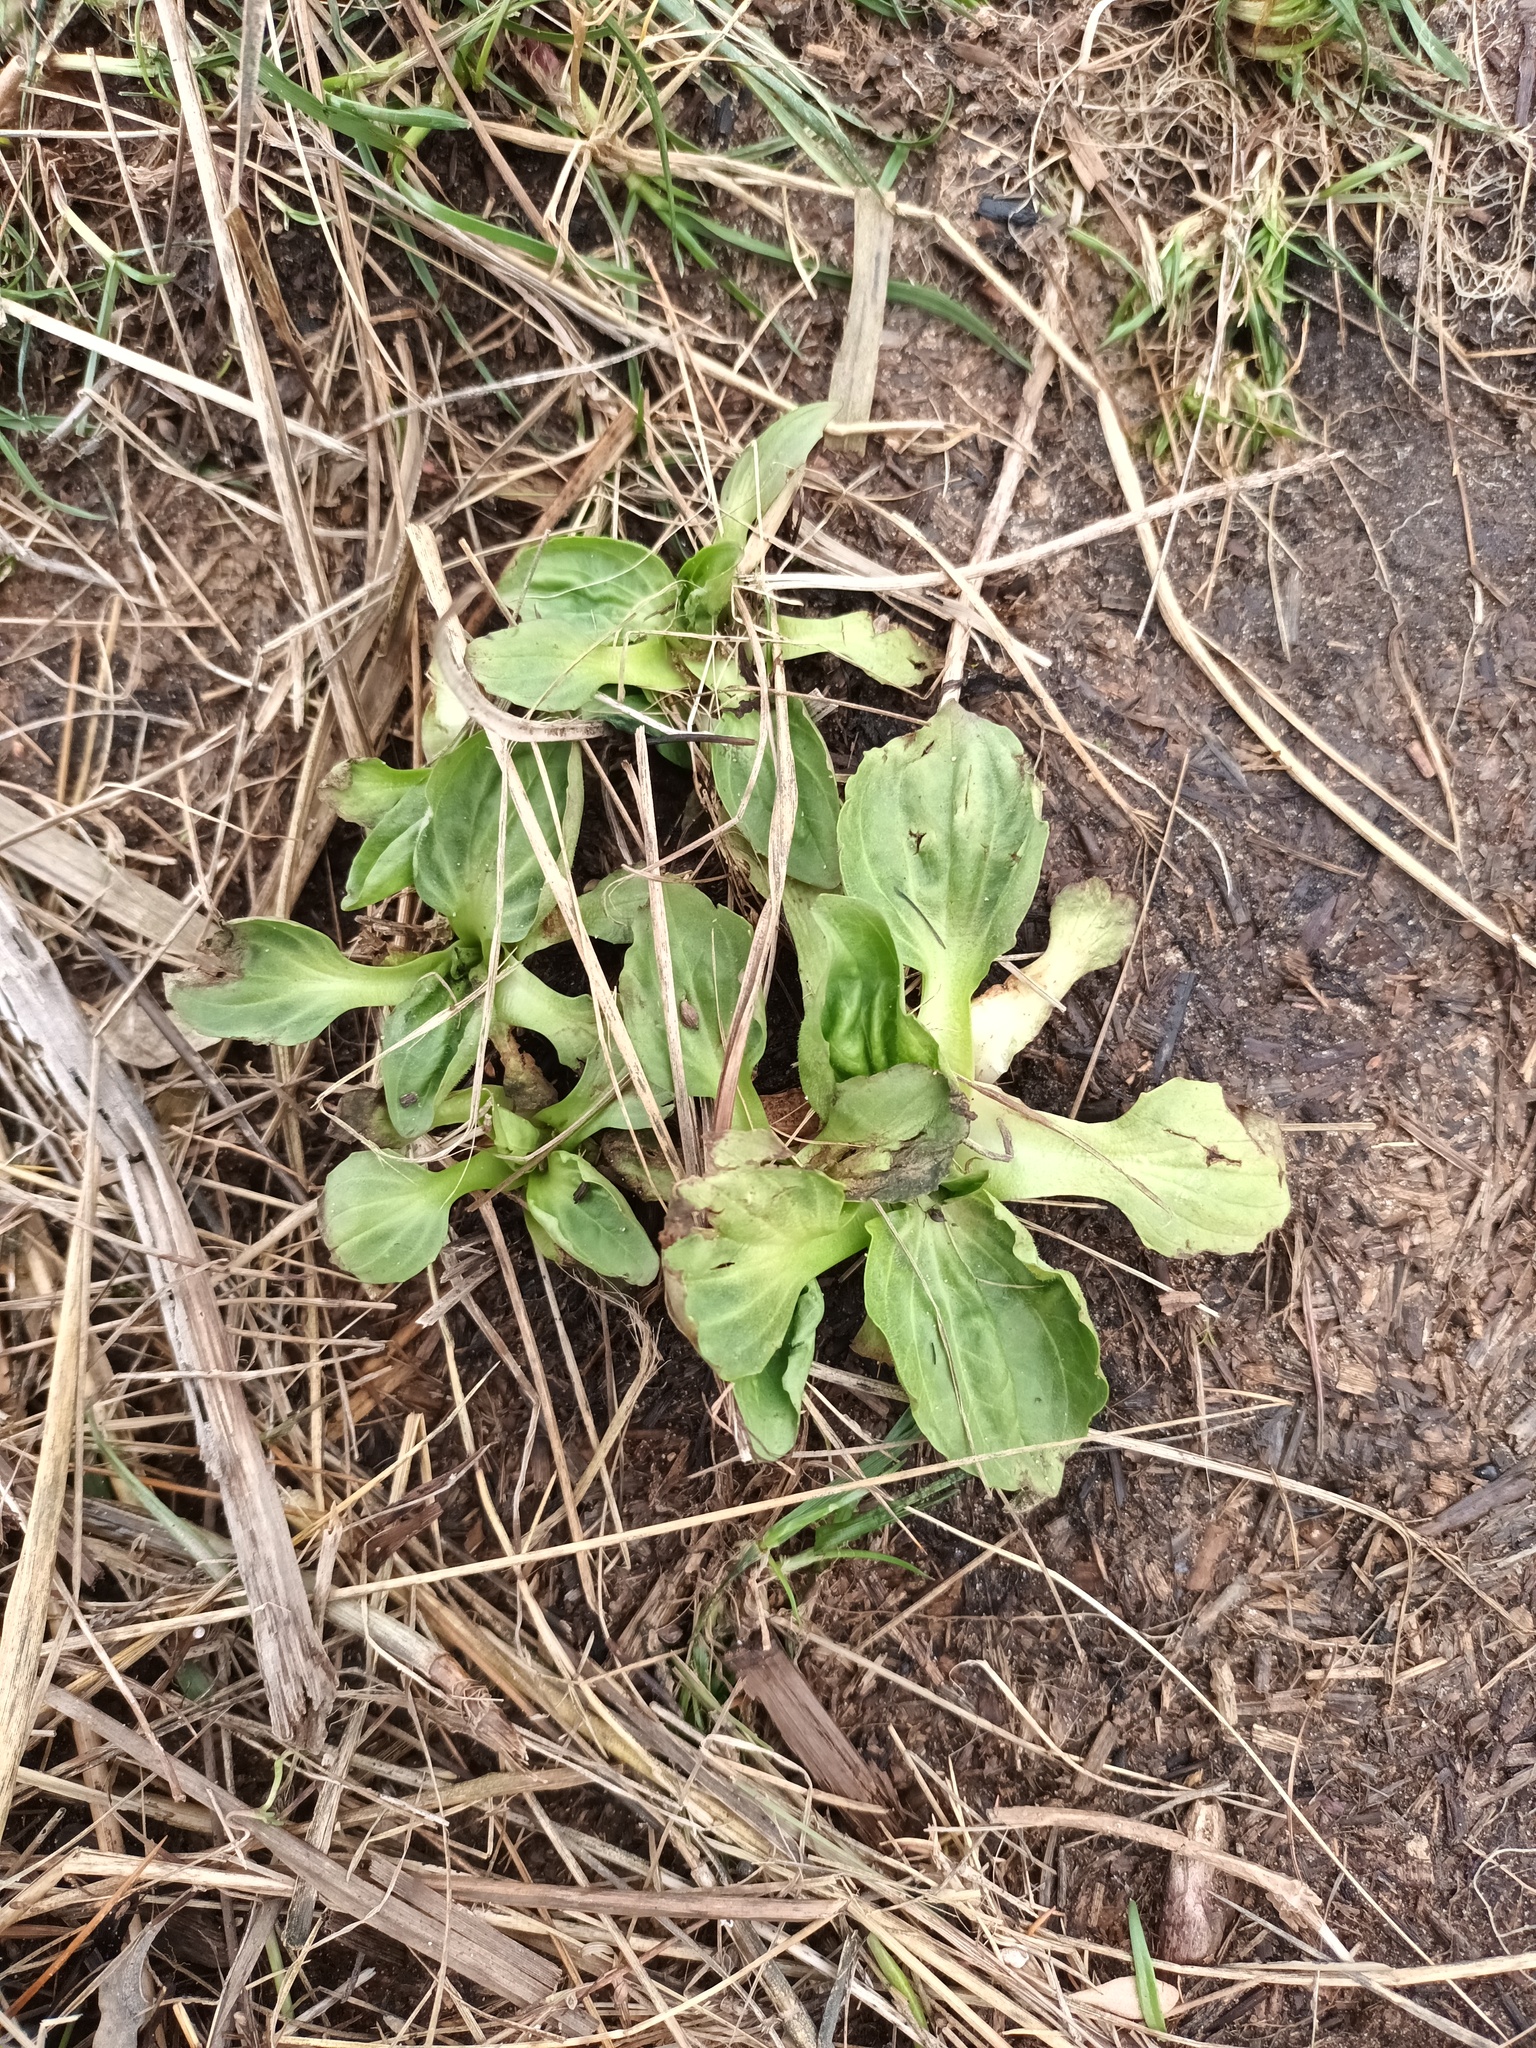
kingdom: Plantae
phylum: Tracheophyta
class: Magnoliopsida
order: Lamiales
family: Plantaginaceae
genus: Plantago
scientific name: Plantago major
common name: Common plantain
